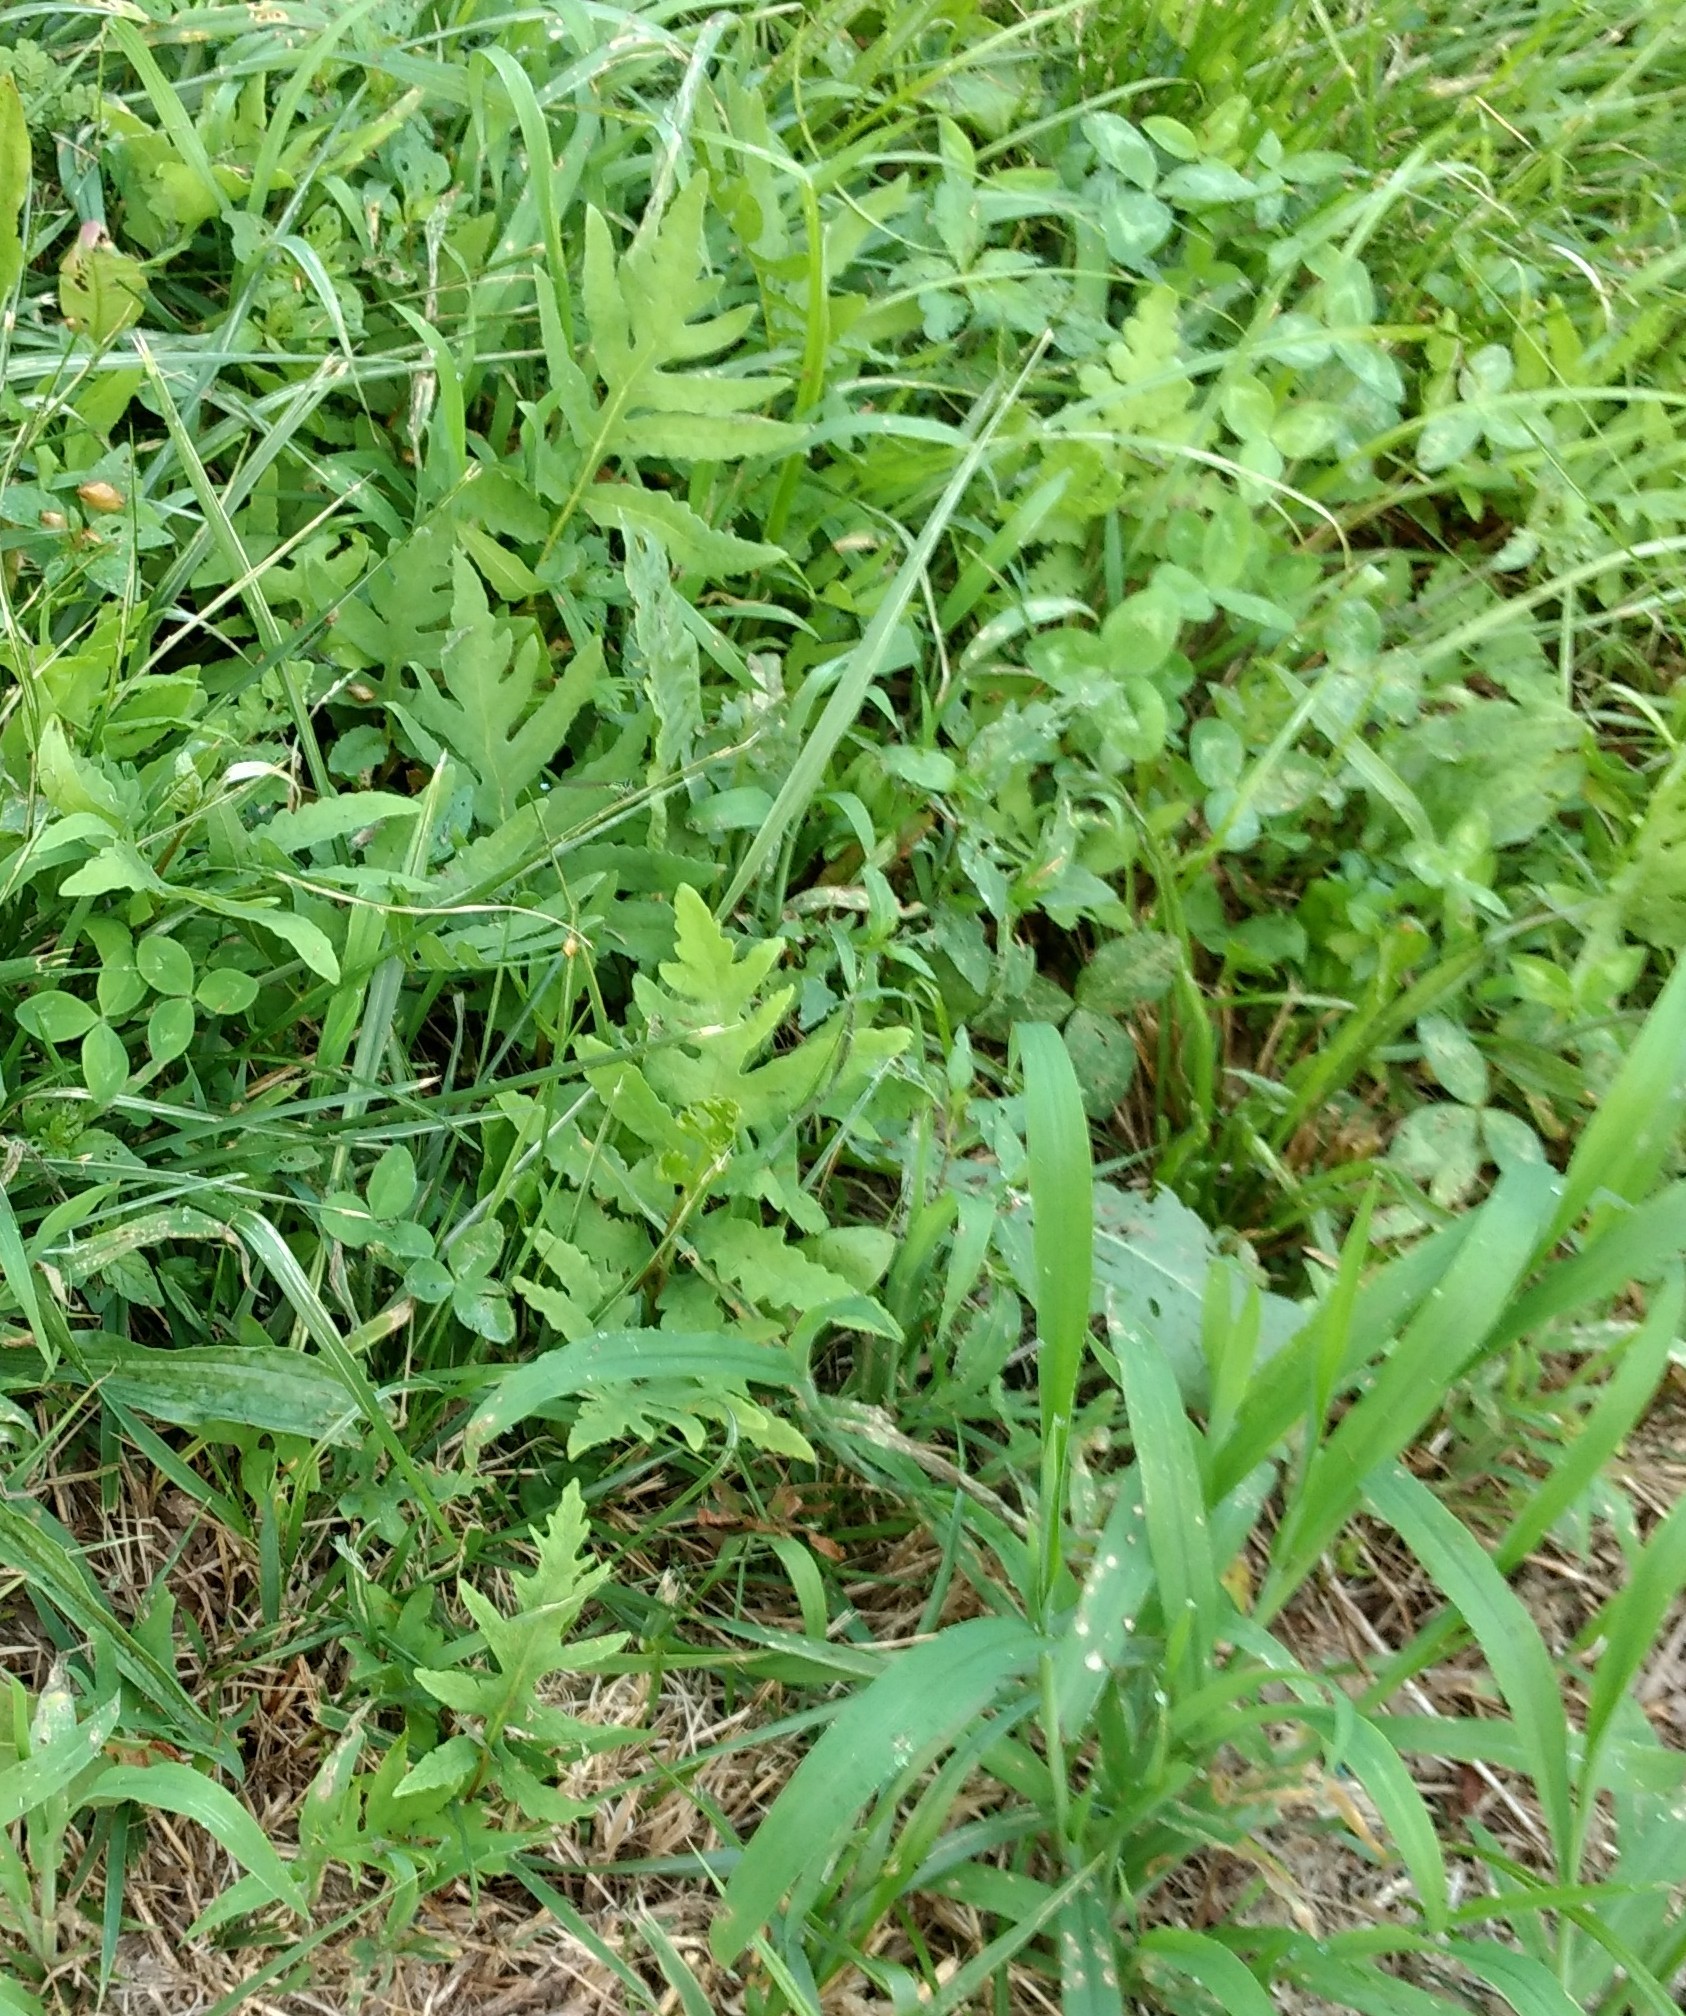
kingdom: Plantae
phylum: Tracheophyta
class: Polypodiopsida
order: Polypodiales
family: Onocleaceae
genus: Onoclea
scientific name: Onoclea sensibilis
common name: Sensitive fern
